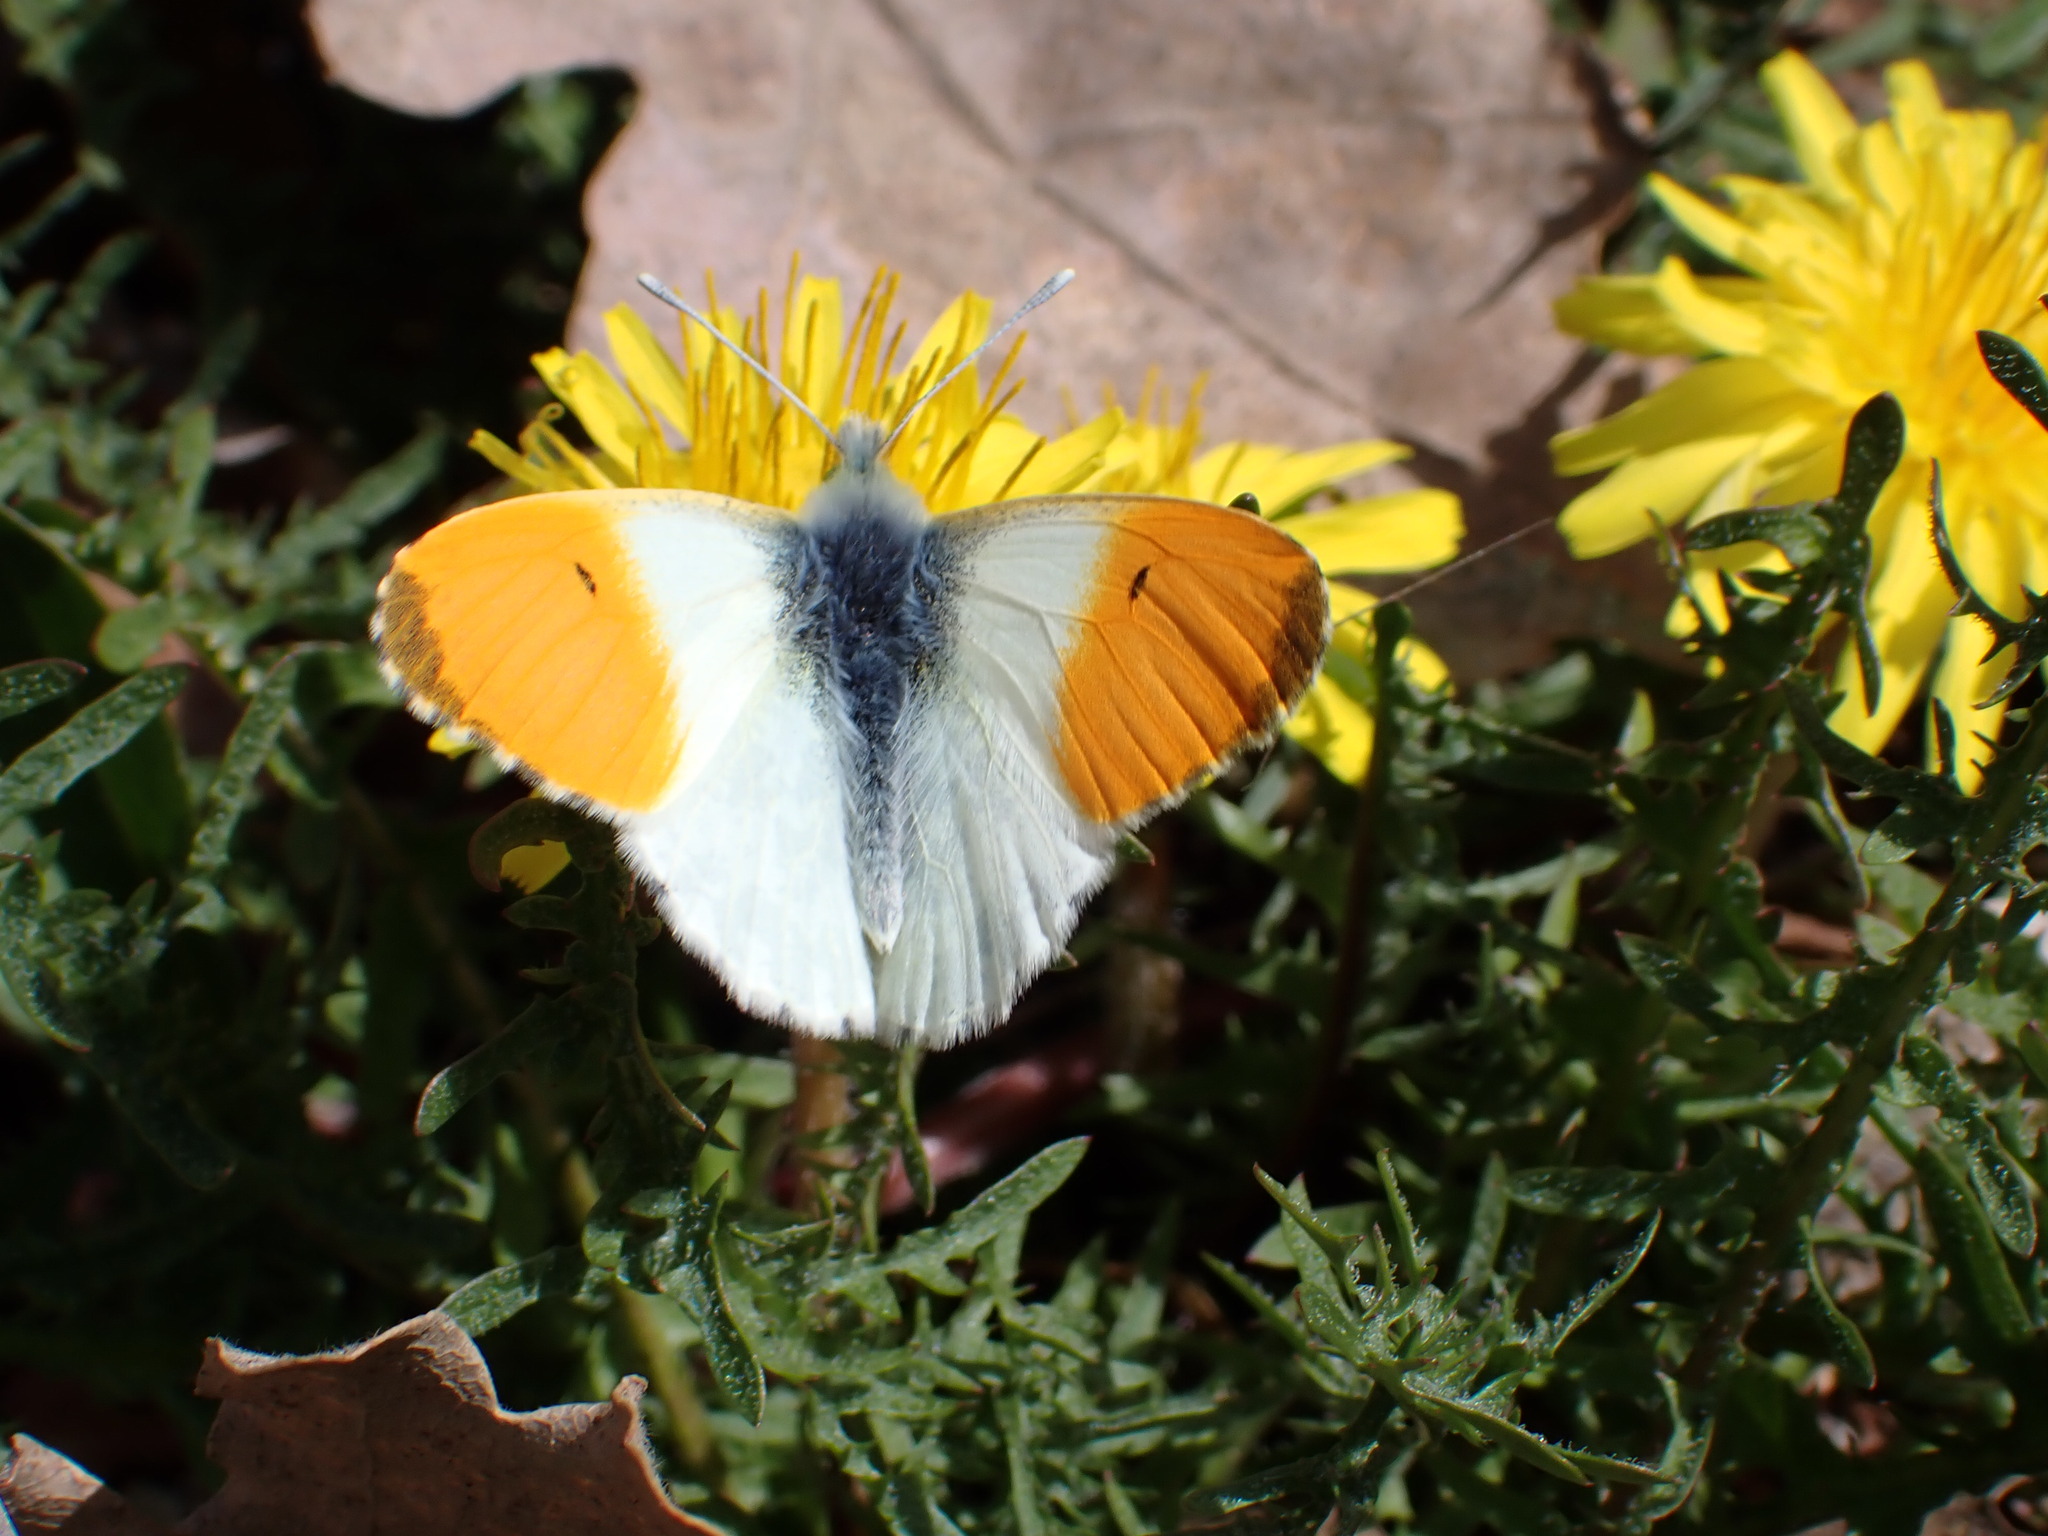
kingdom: Animalia
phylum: Arthropoda
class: Insecta
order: Lepidoptera
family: Pieridae
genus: Anthocharis
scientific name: Anthocharis cardamines
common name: Orange-tip
